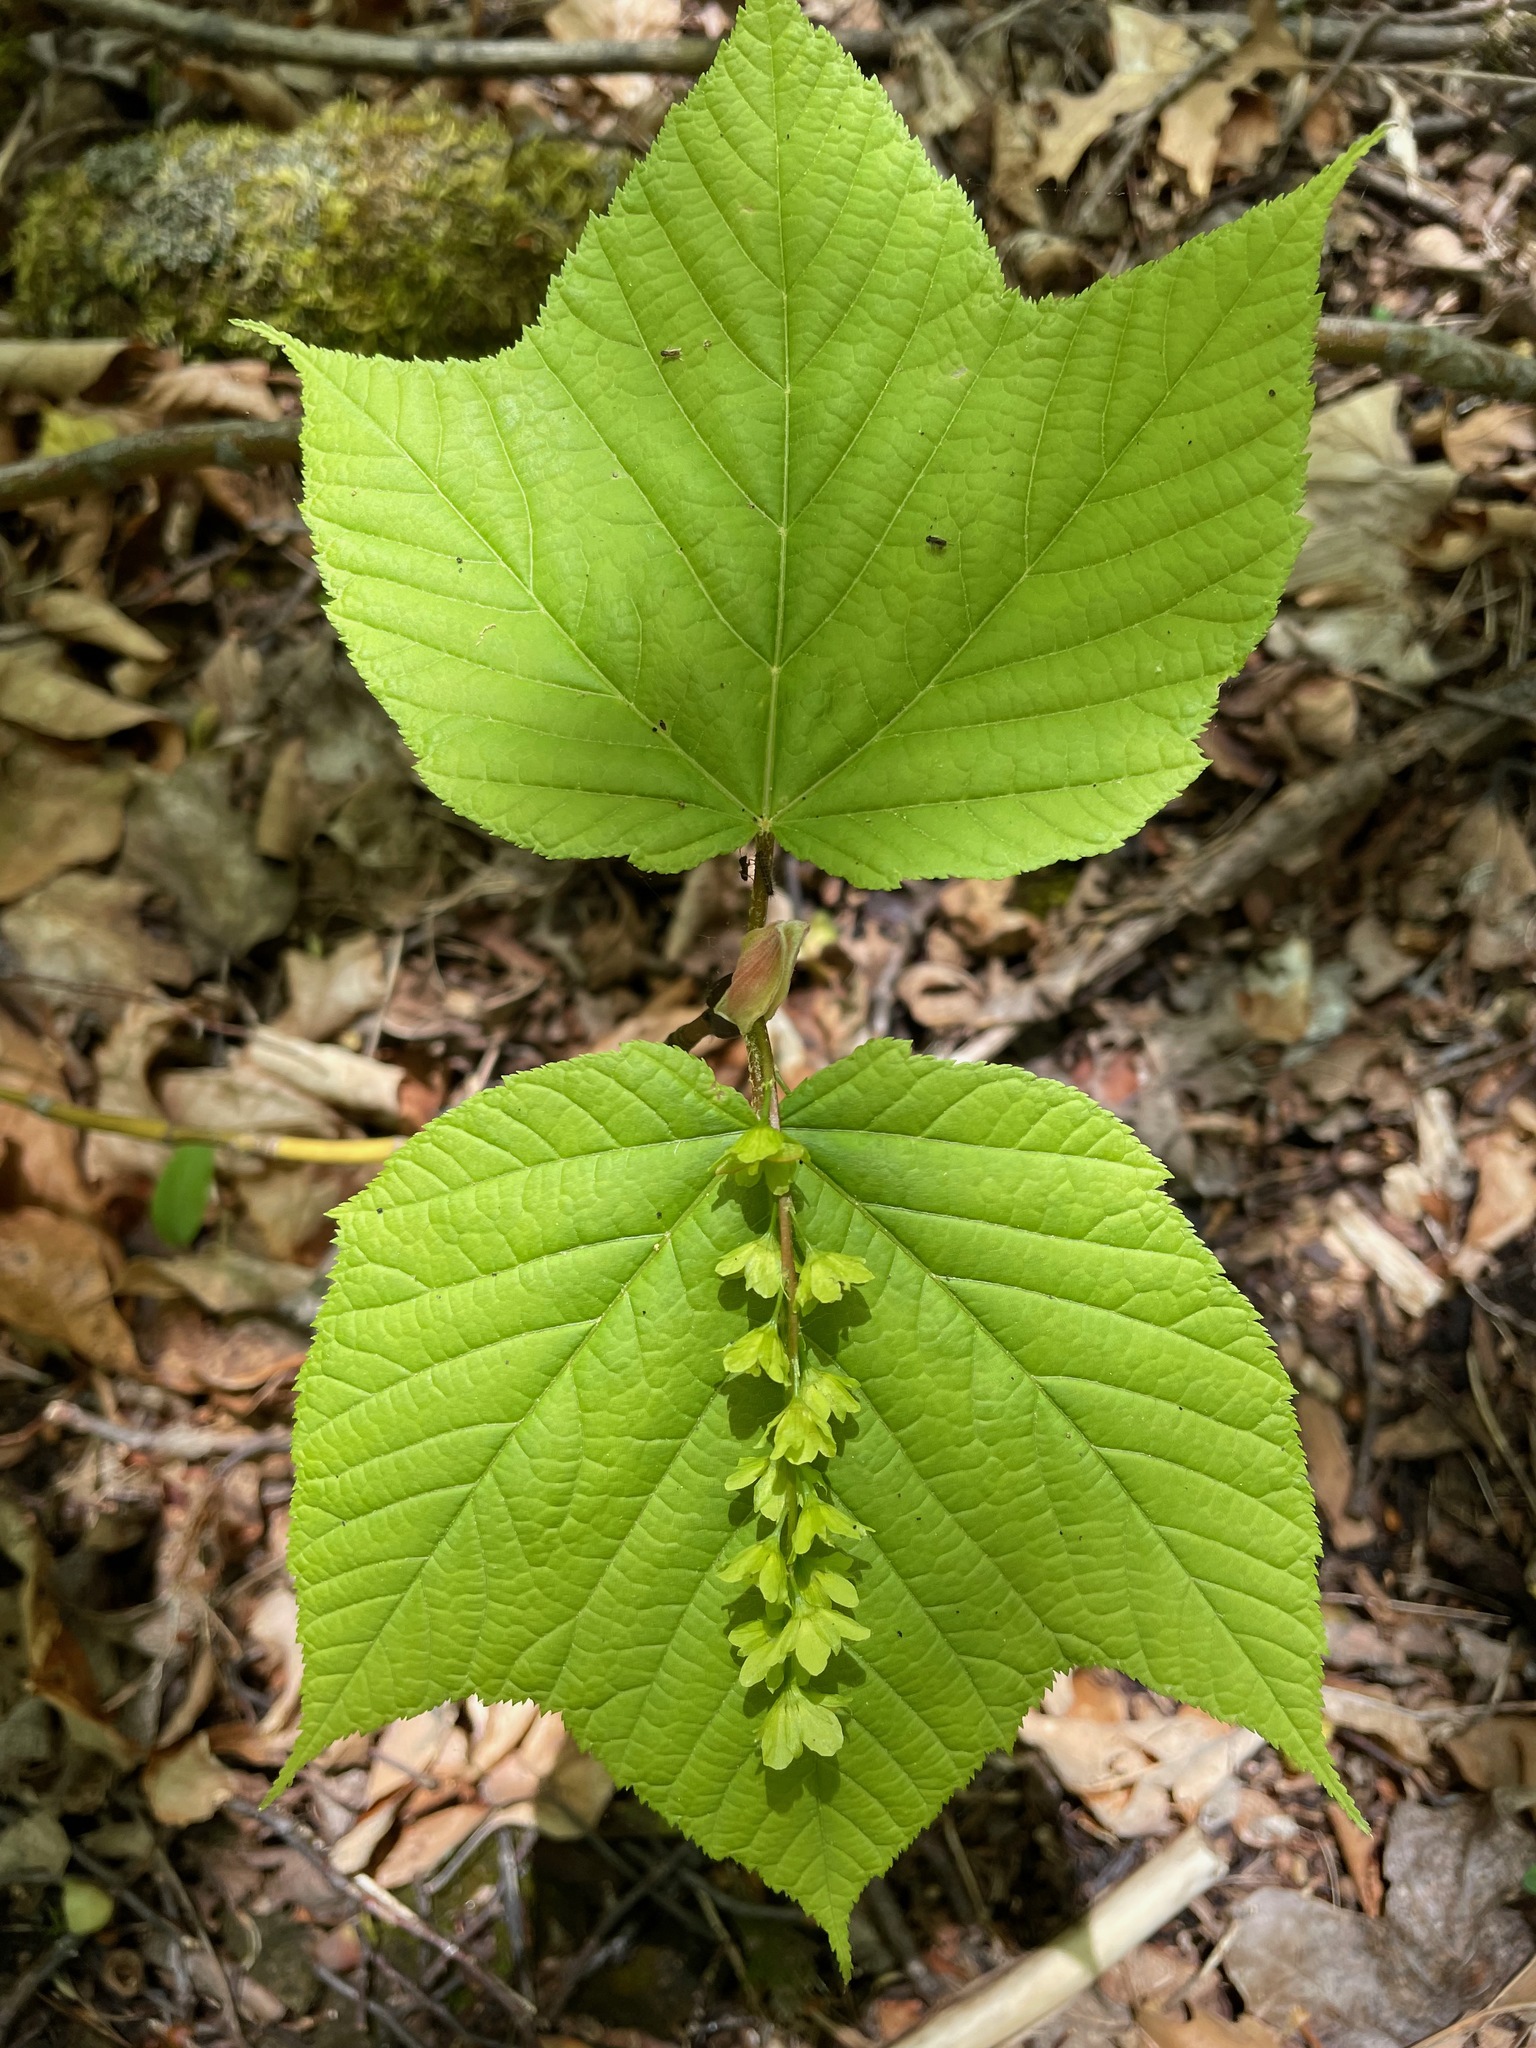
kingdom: Plantae
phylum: Tracheophyta
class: Magnoliopsida
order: Sapindales
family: Sapindaceae
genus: Acer
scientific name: Acer pensylvanicum
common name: Moosewood
